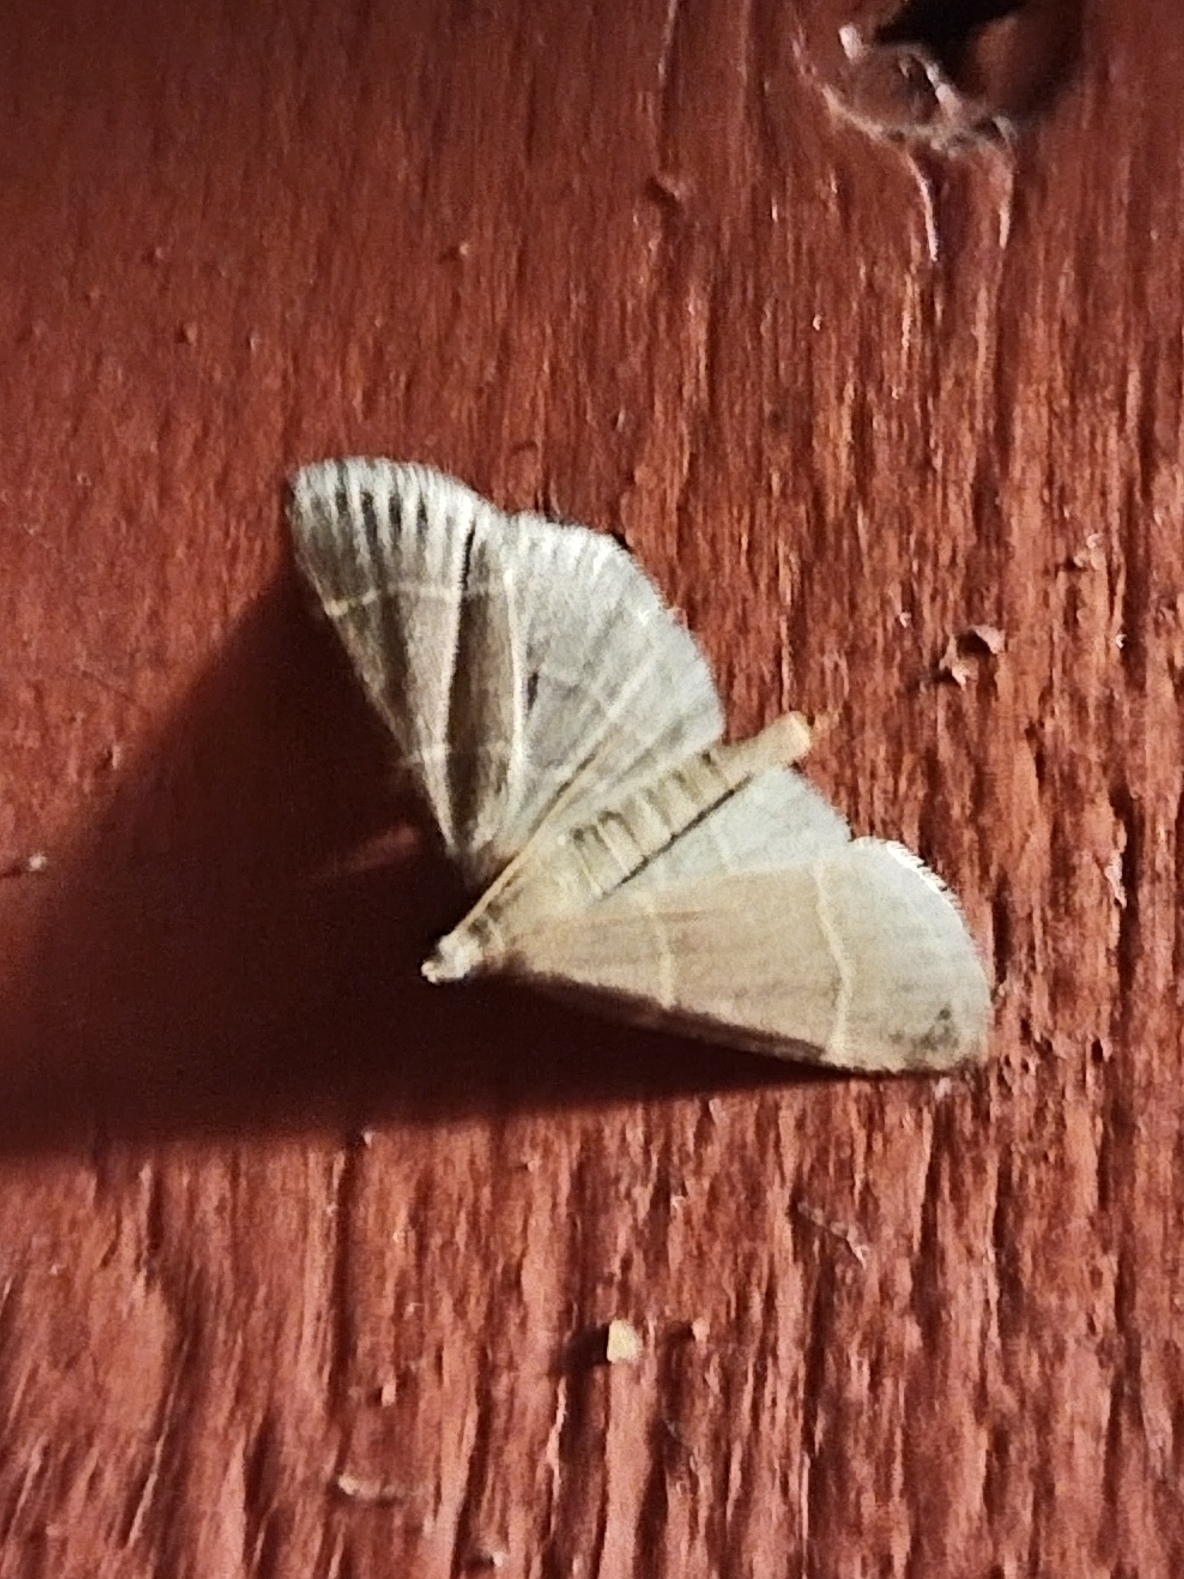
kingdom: Animalia
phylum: Arthropoda
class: Insecta
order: Lepidoptera
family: Pyralidae
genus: Hypsopygia
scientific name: Hypsopygia glaucinalis
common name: Double-striped tabby
